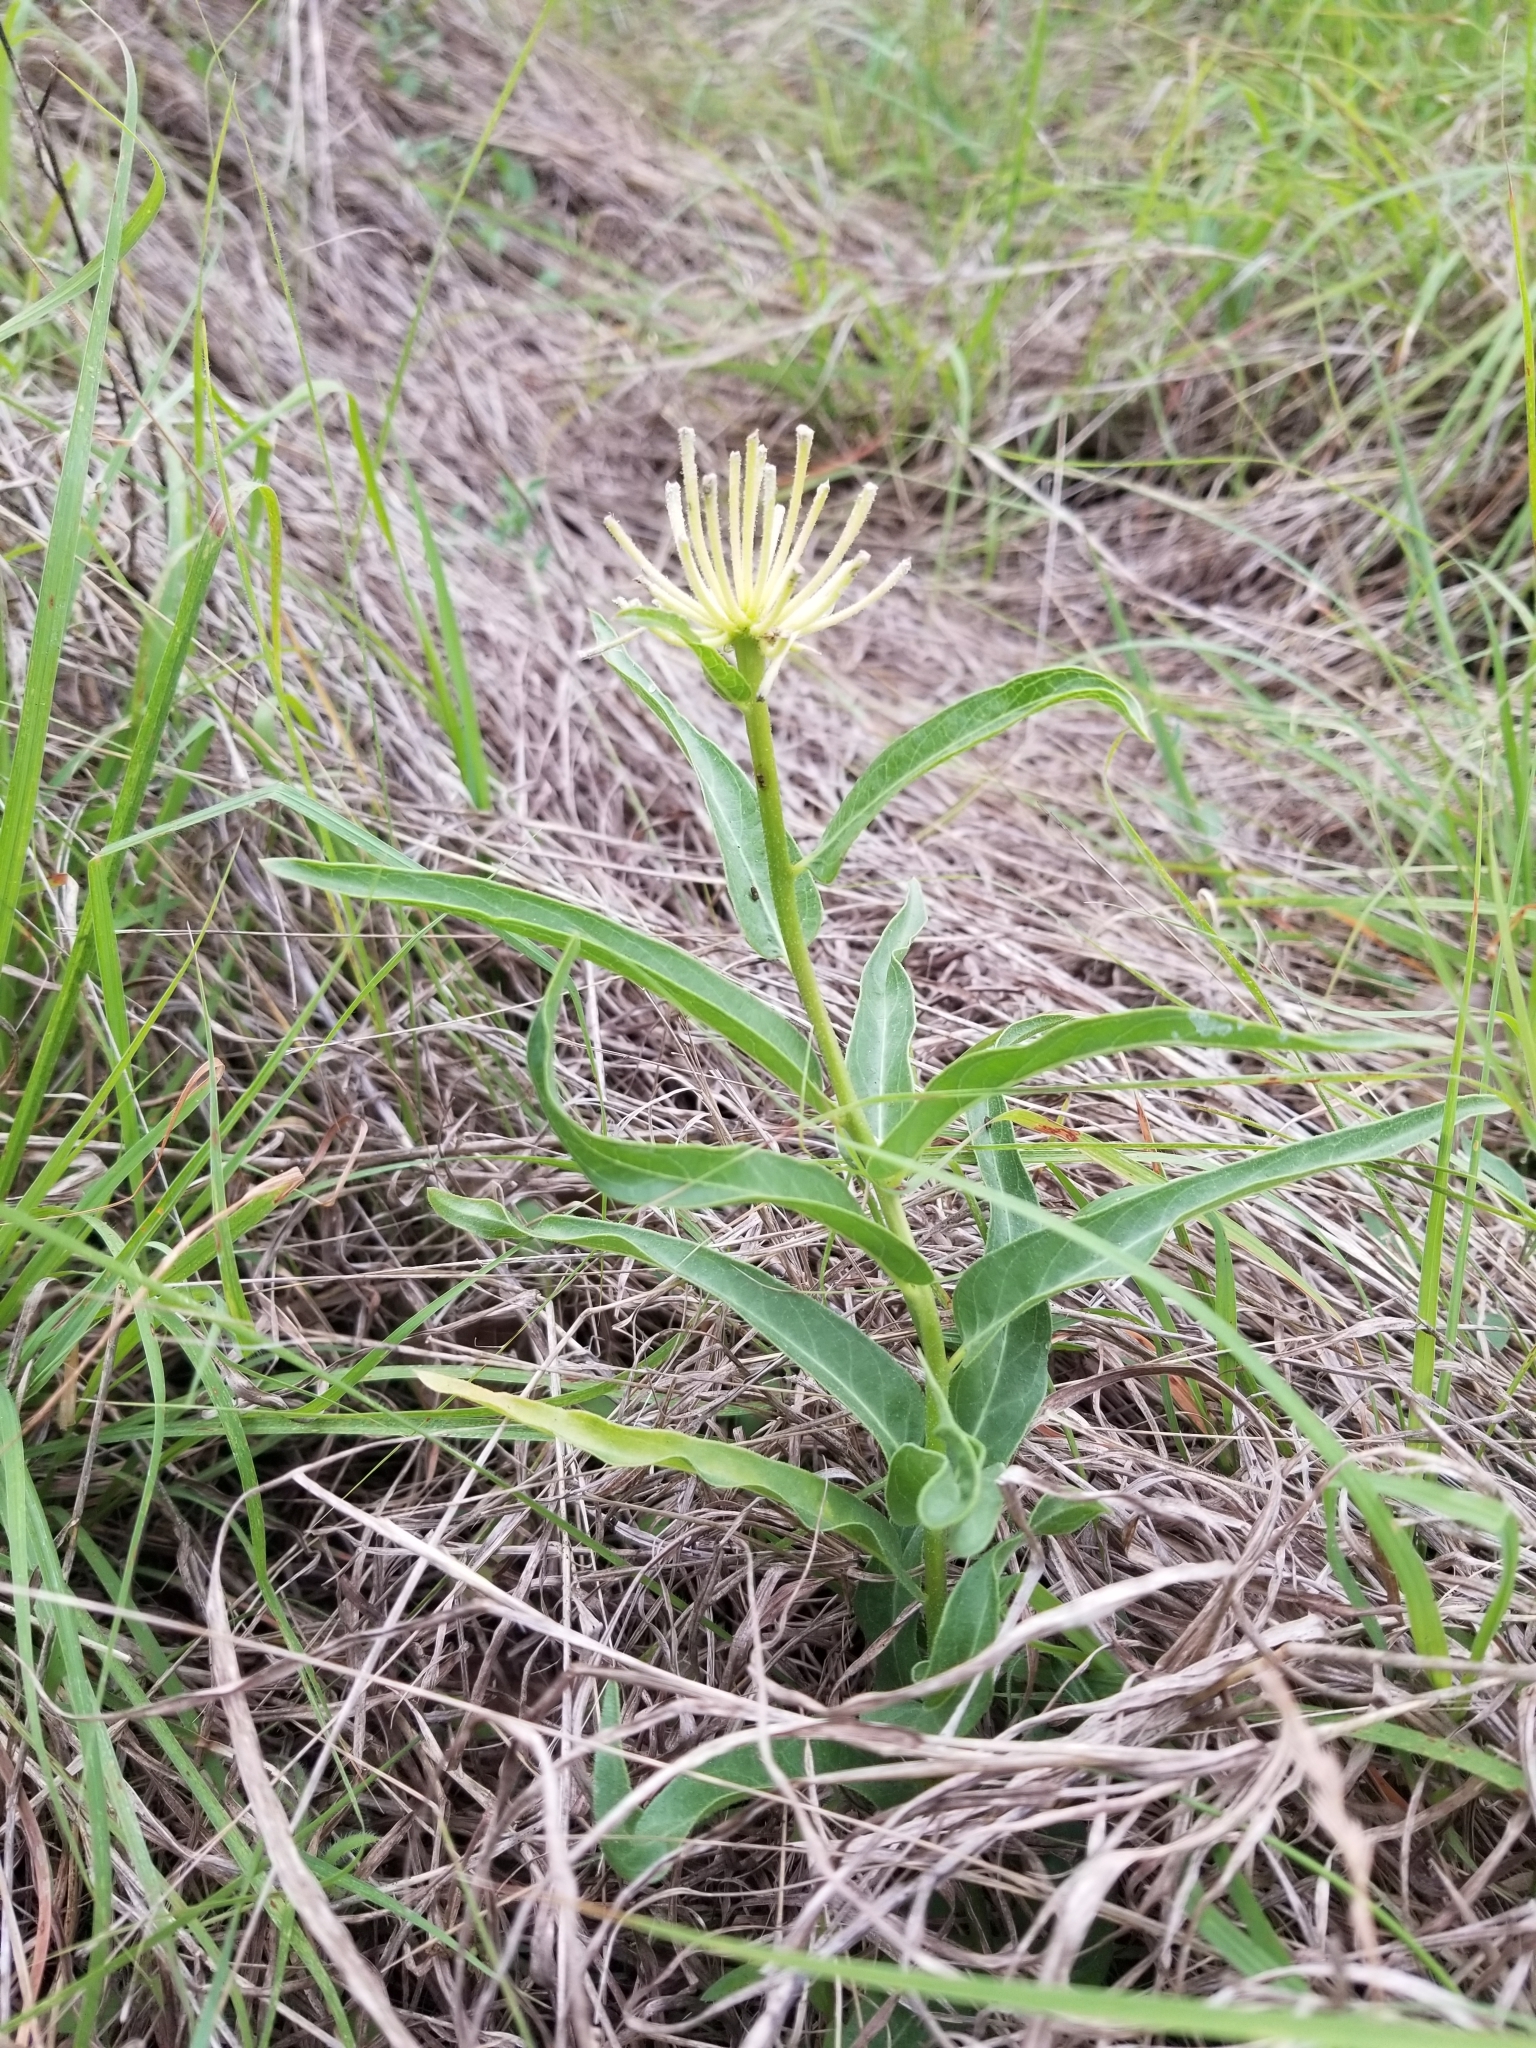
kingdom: Plantae
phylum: Tracheophyta
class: Magnoliopsida
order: Gentianales
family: Apocynaceae
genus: Asclepias
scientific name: Asclepias asperula
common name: Antelope horns
